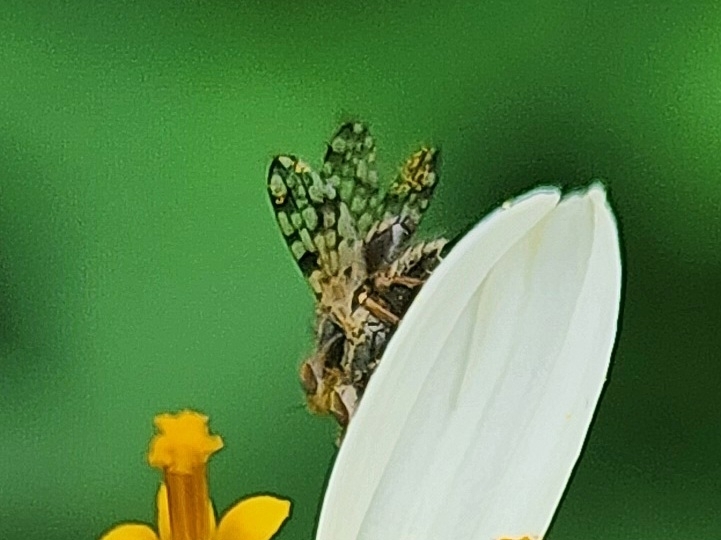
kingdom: Animalia
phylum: Arthropoda
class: Insecta
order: Diptera
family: Tephritidae
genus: Dioxyna
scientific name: Dioxyna picciola
